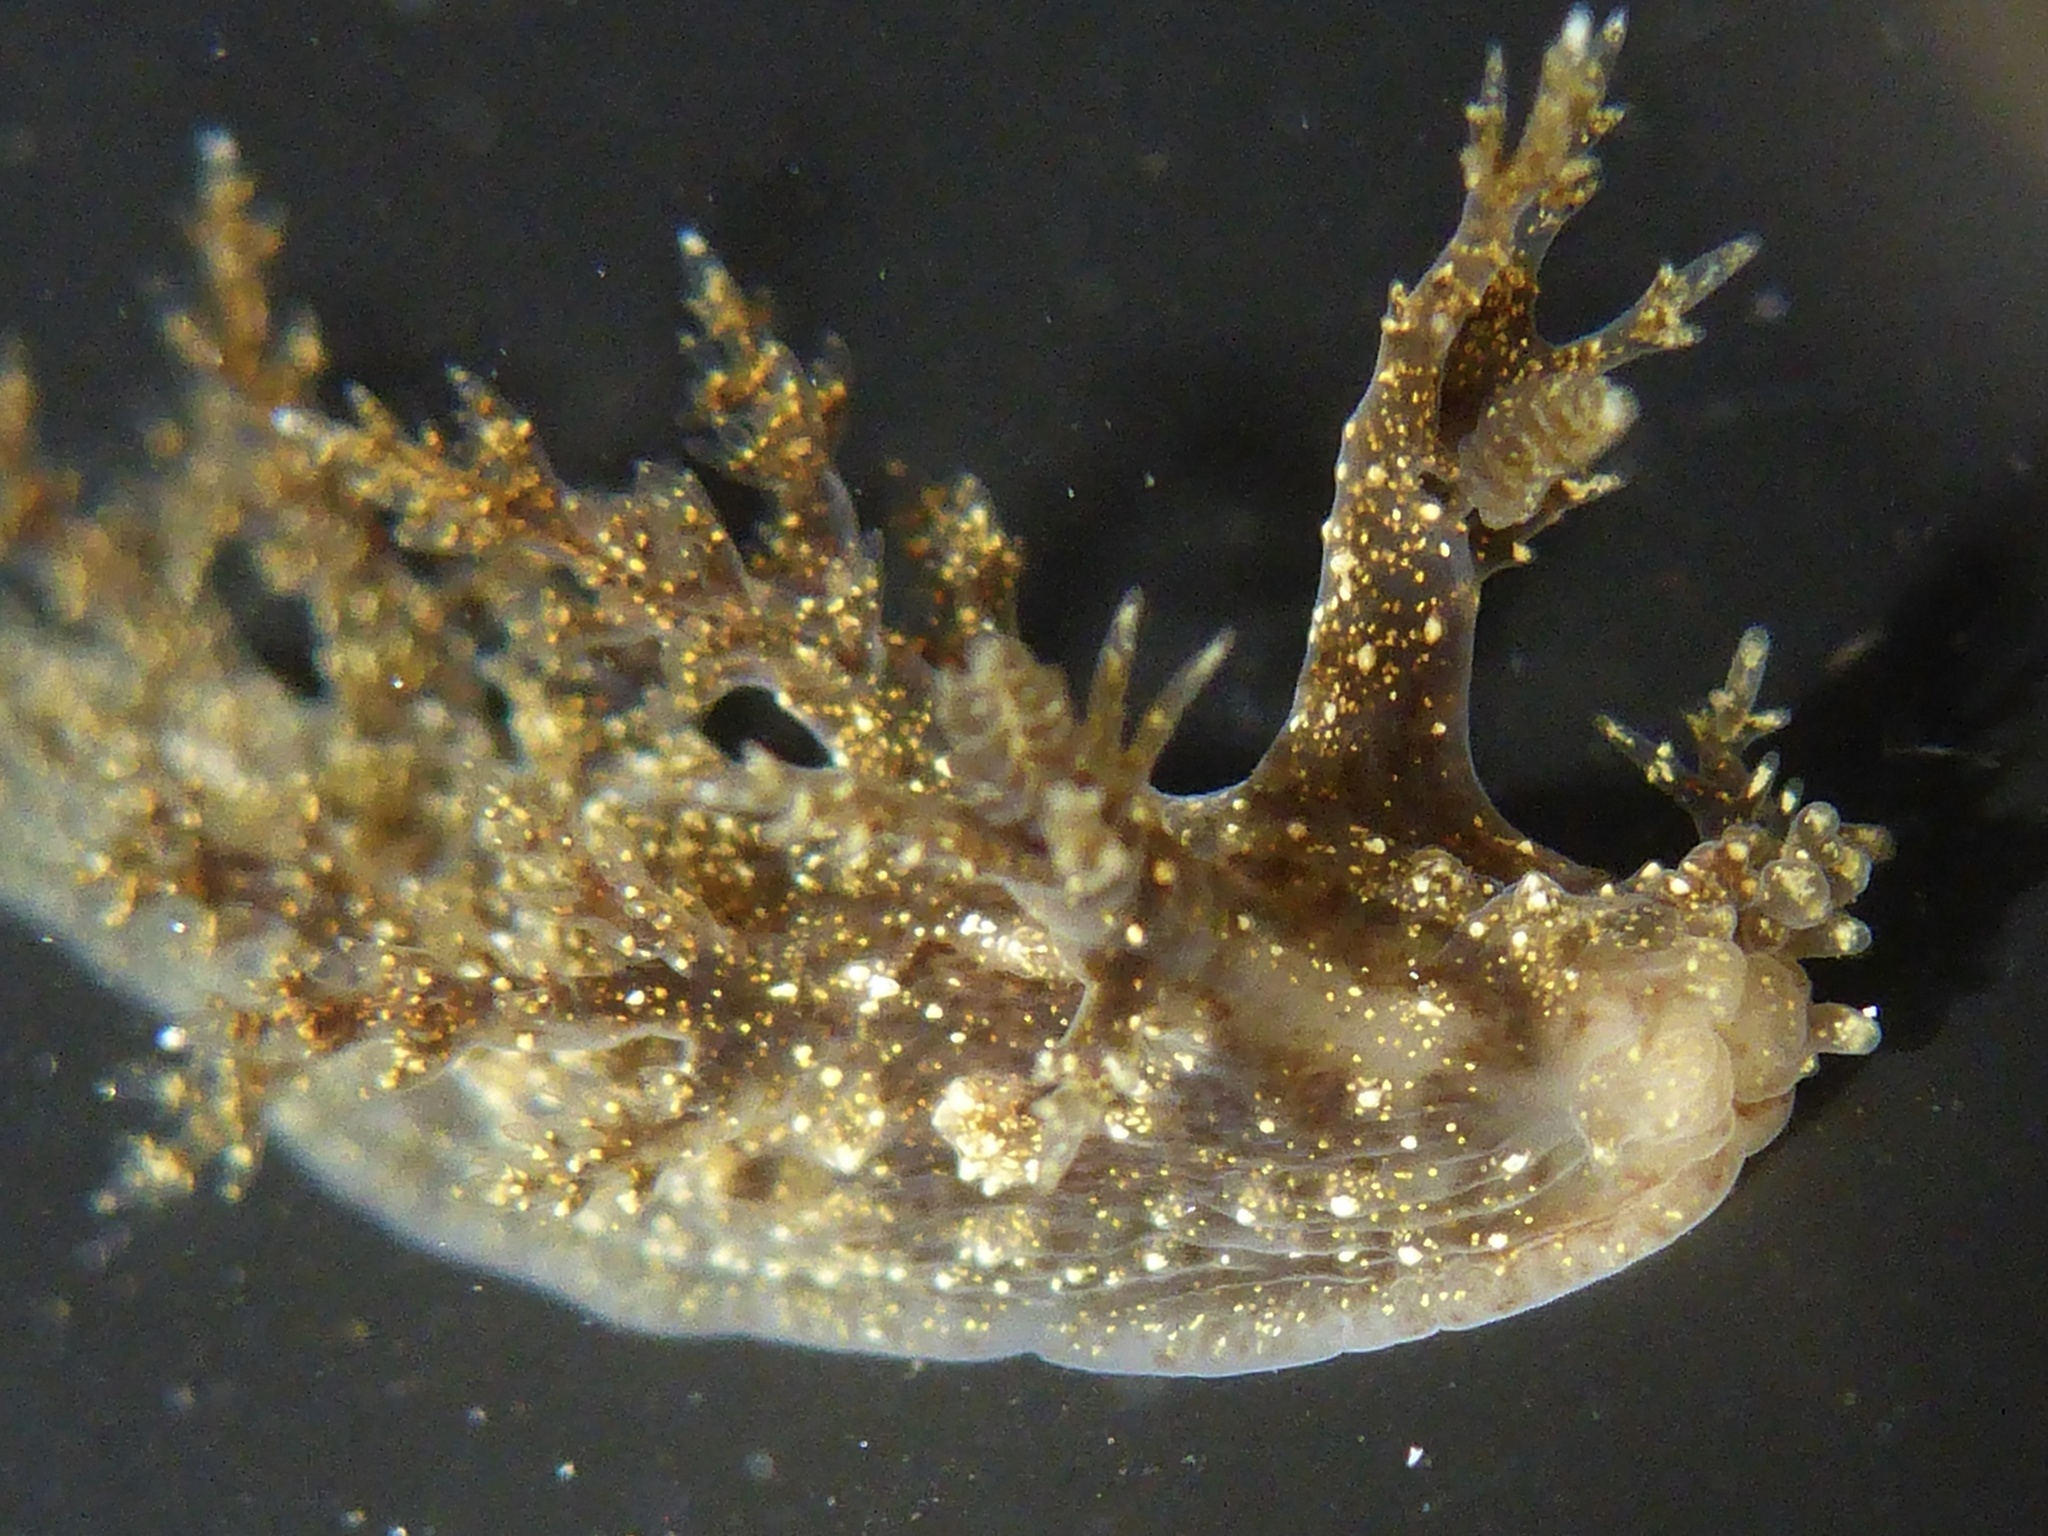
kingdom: Animalia
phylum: Mollusca
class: Gastropoda
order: Nudibranchia
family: Dendronotidae
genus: Dendronotus
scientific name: Dendronotus venustus
